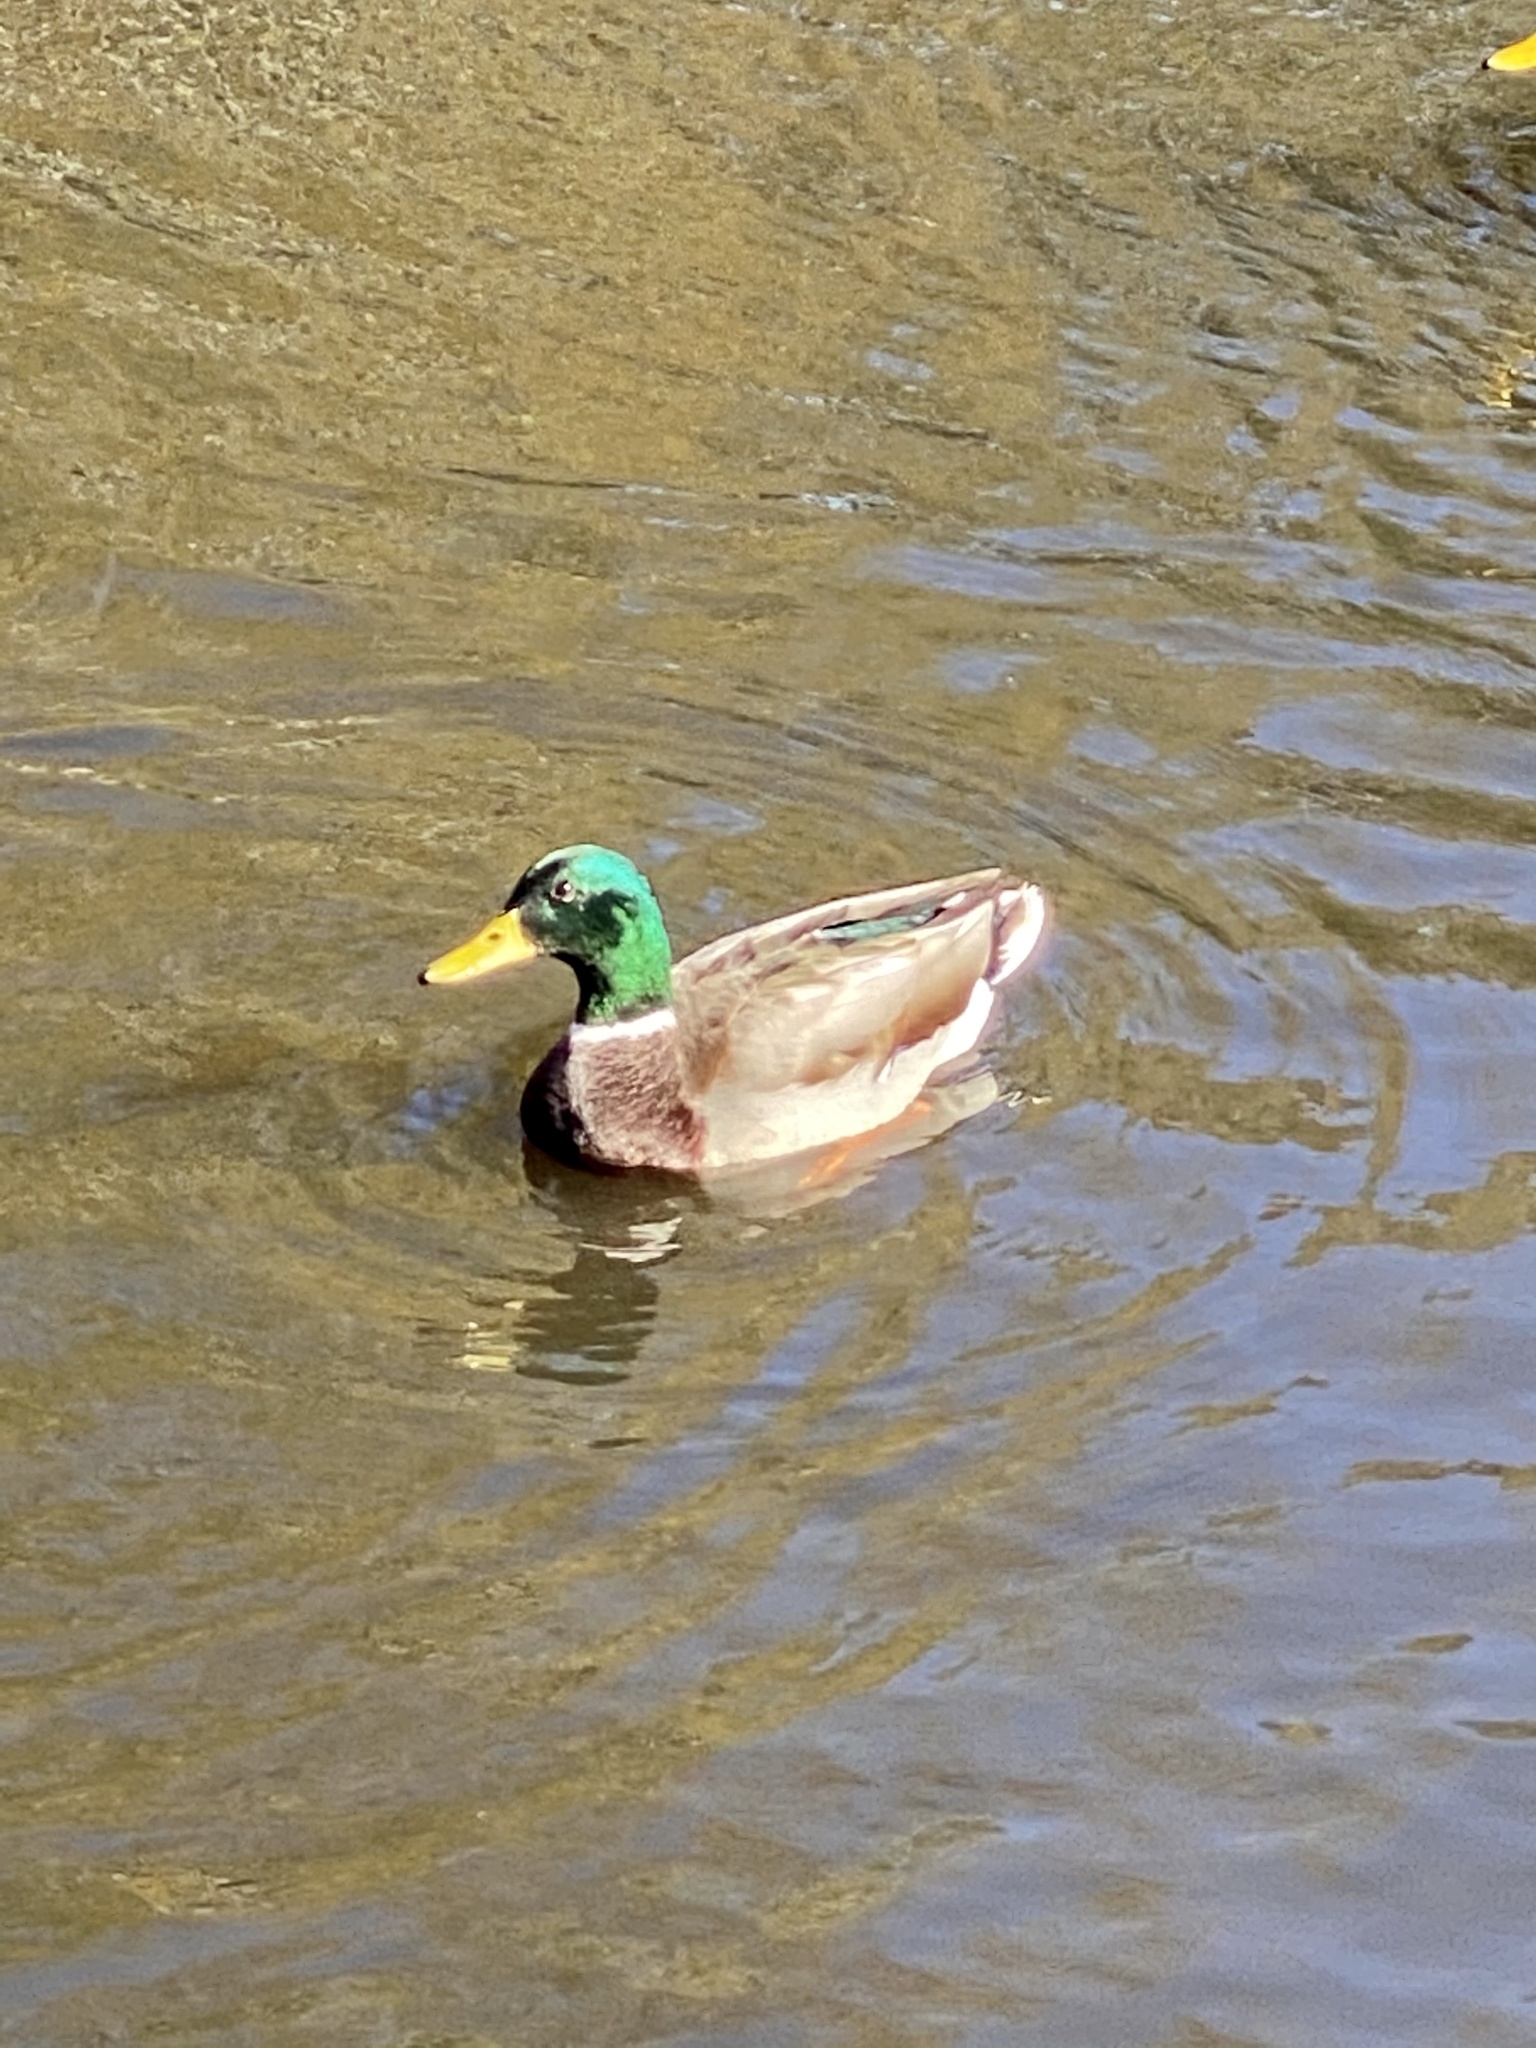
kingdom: Animalia
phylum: Chordata
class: Aves
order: Anseriformes
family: Anatidae
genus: Anas
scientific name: Anas platyrhynchos
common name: Mallard
